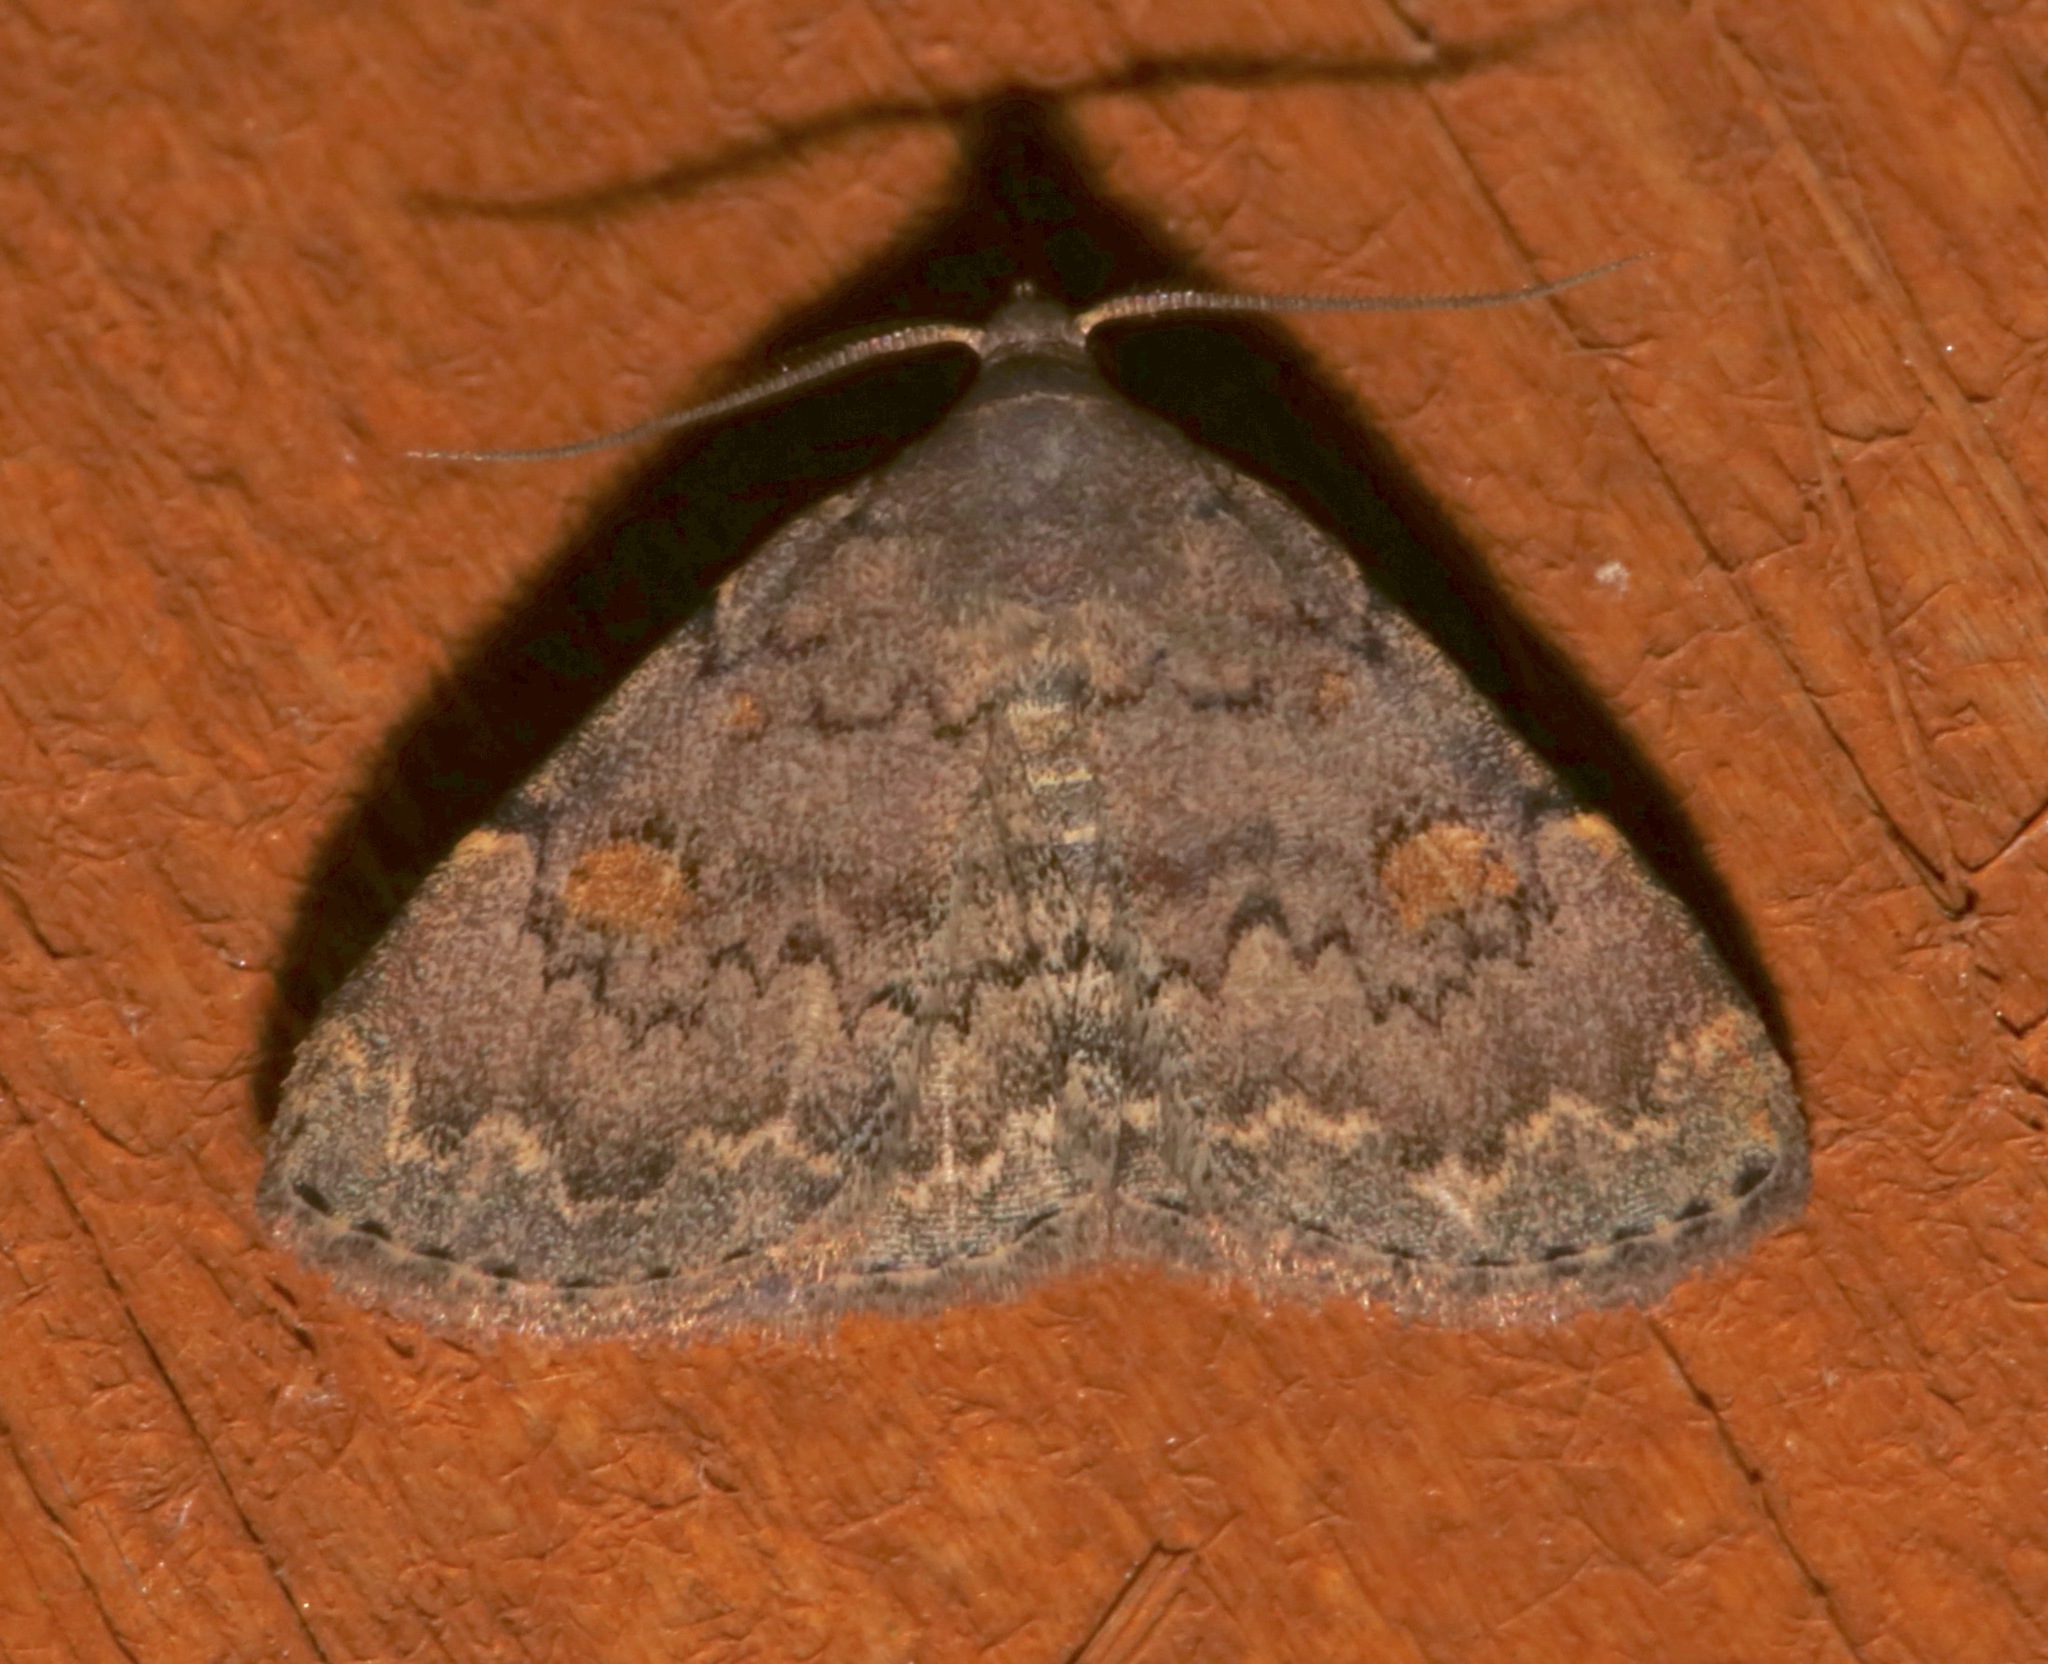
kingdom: Animalia
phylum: Arthropoda
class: Insecta
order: Lepidoptera
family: Erebidae
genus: Idia
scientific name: Idia aemula
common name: Common idia moth
